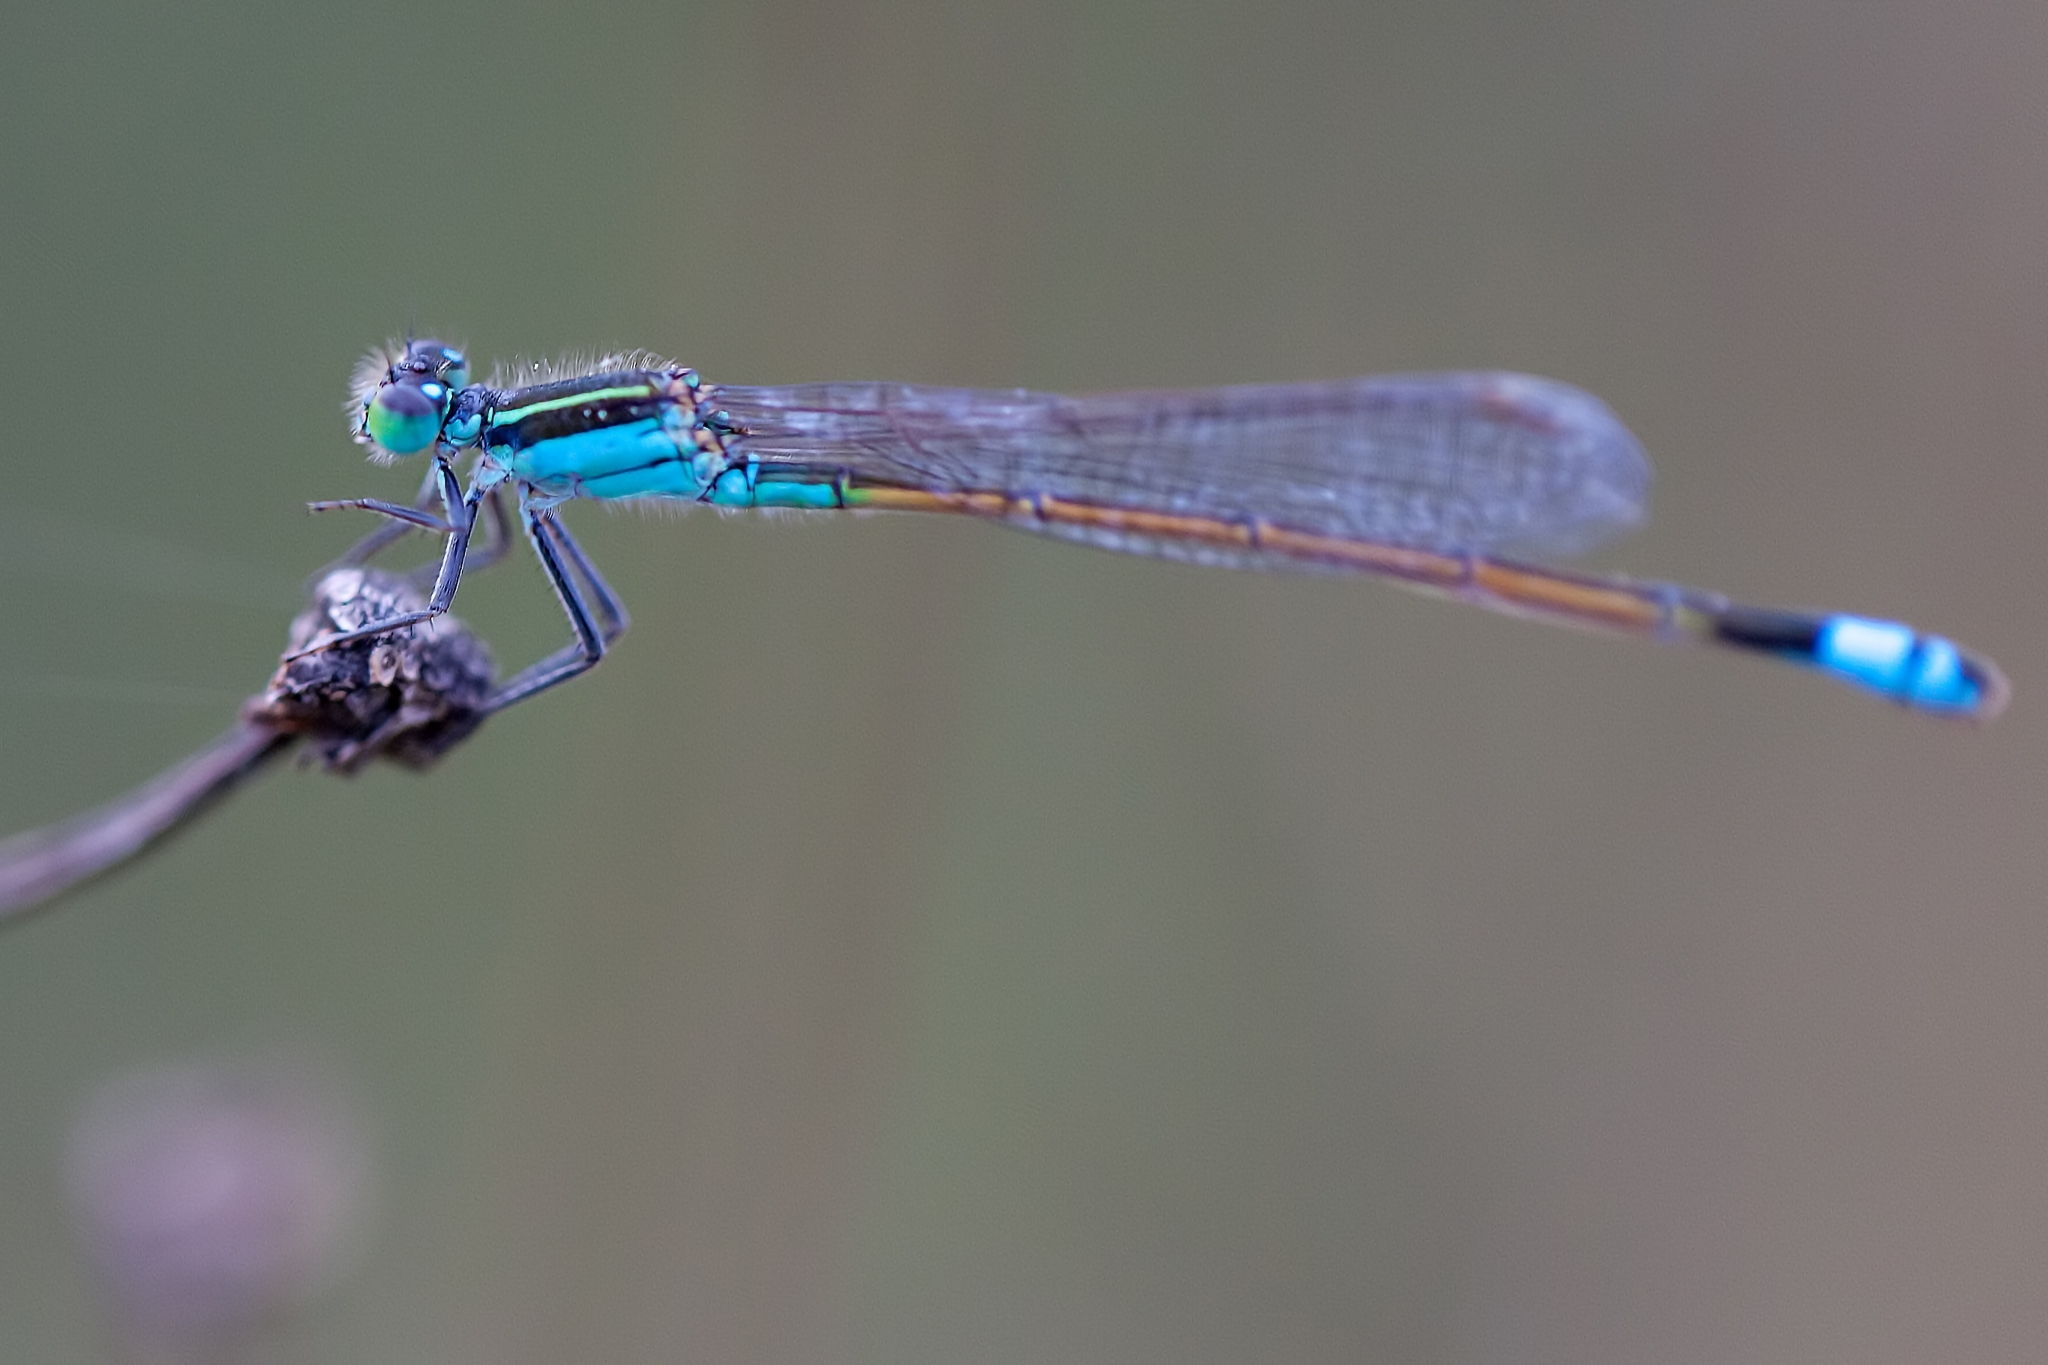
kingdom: Animalia
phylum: Arthropoda
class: Insecta
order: Odonata
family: Coenagrionidae
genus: Ischnura
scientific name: Ischnura ramburii
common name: Rambur's forktail
